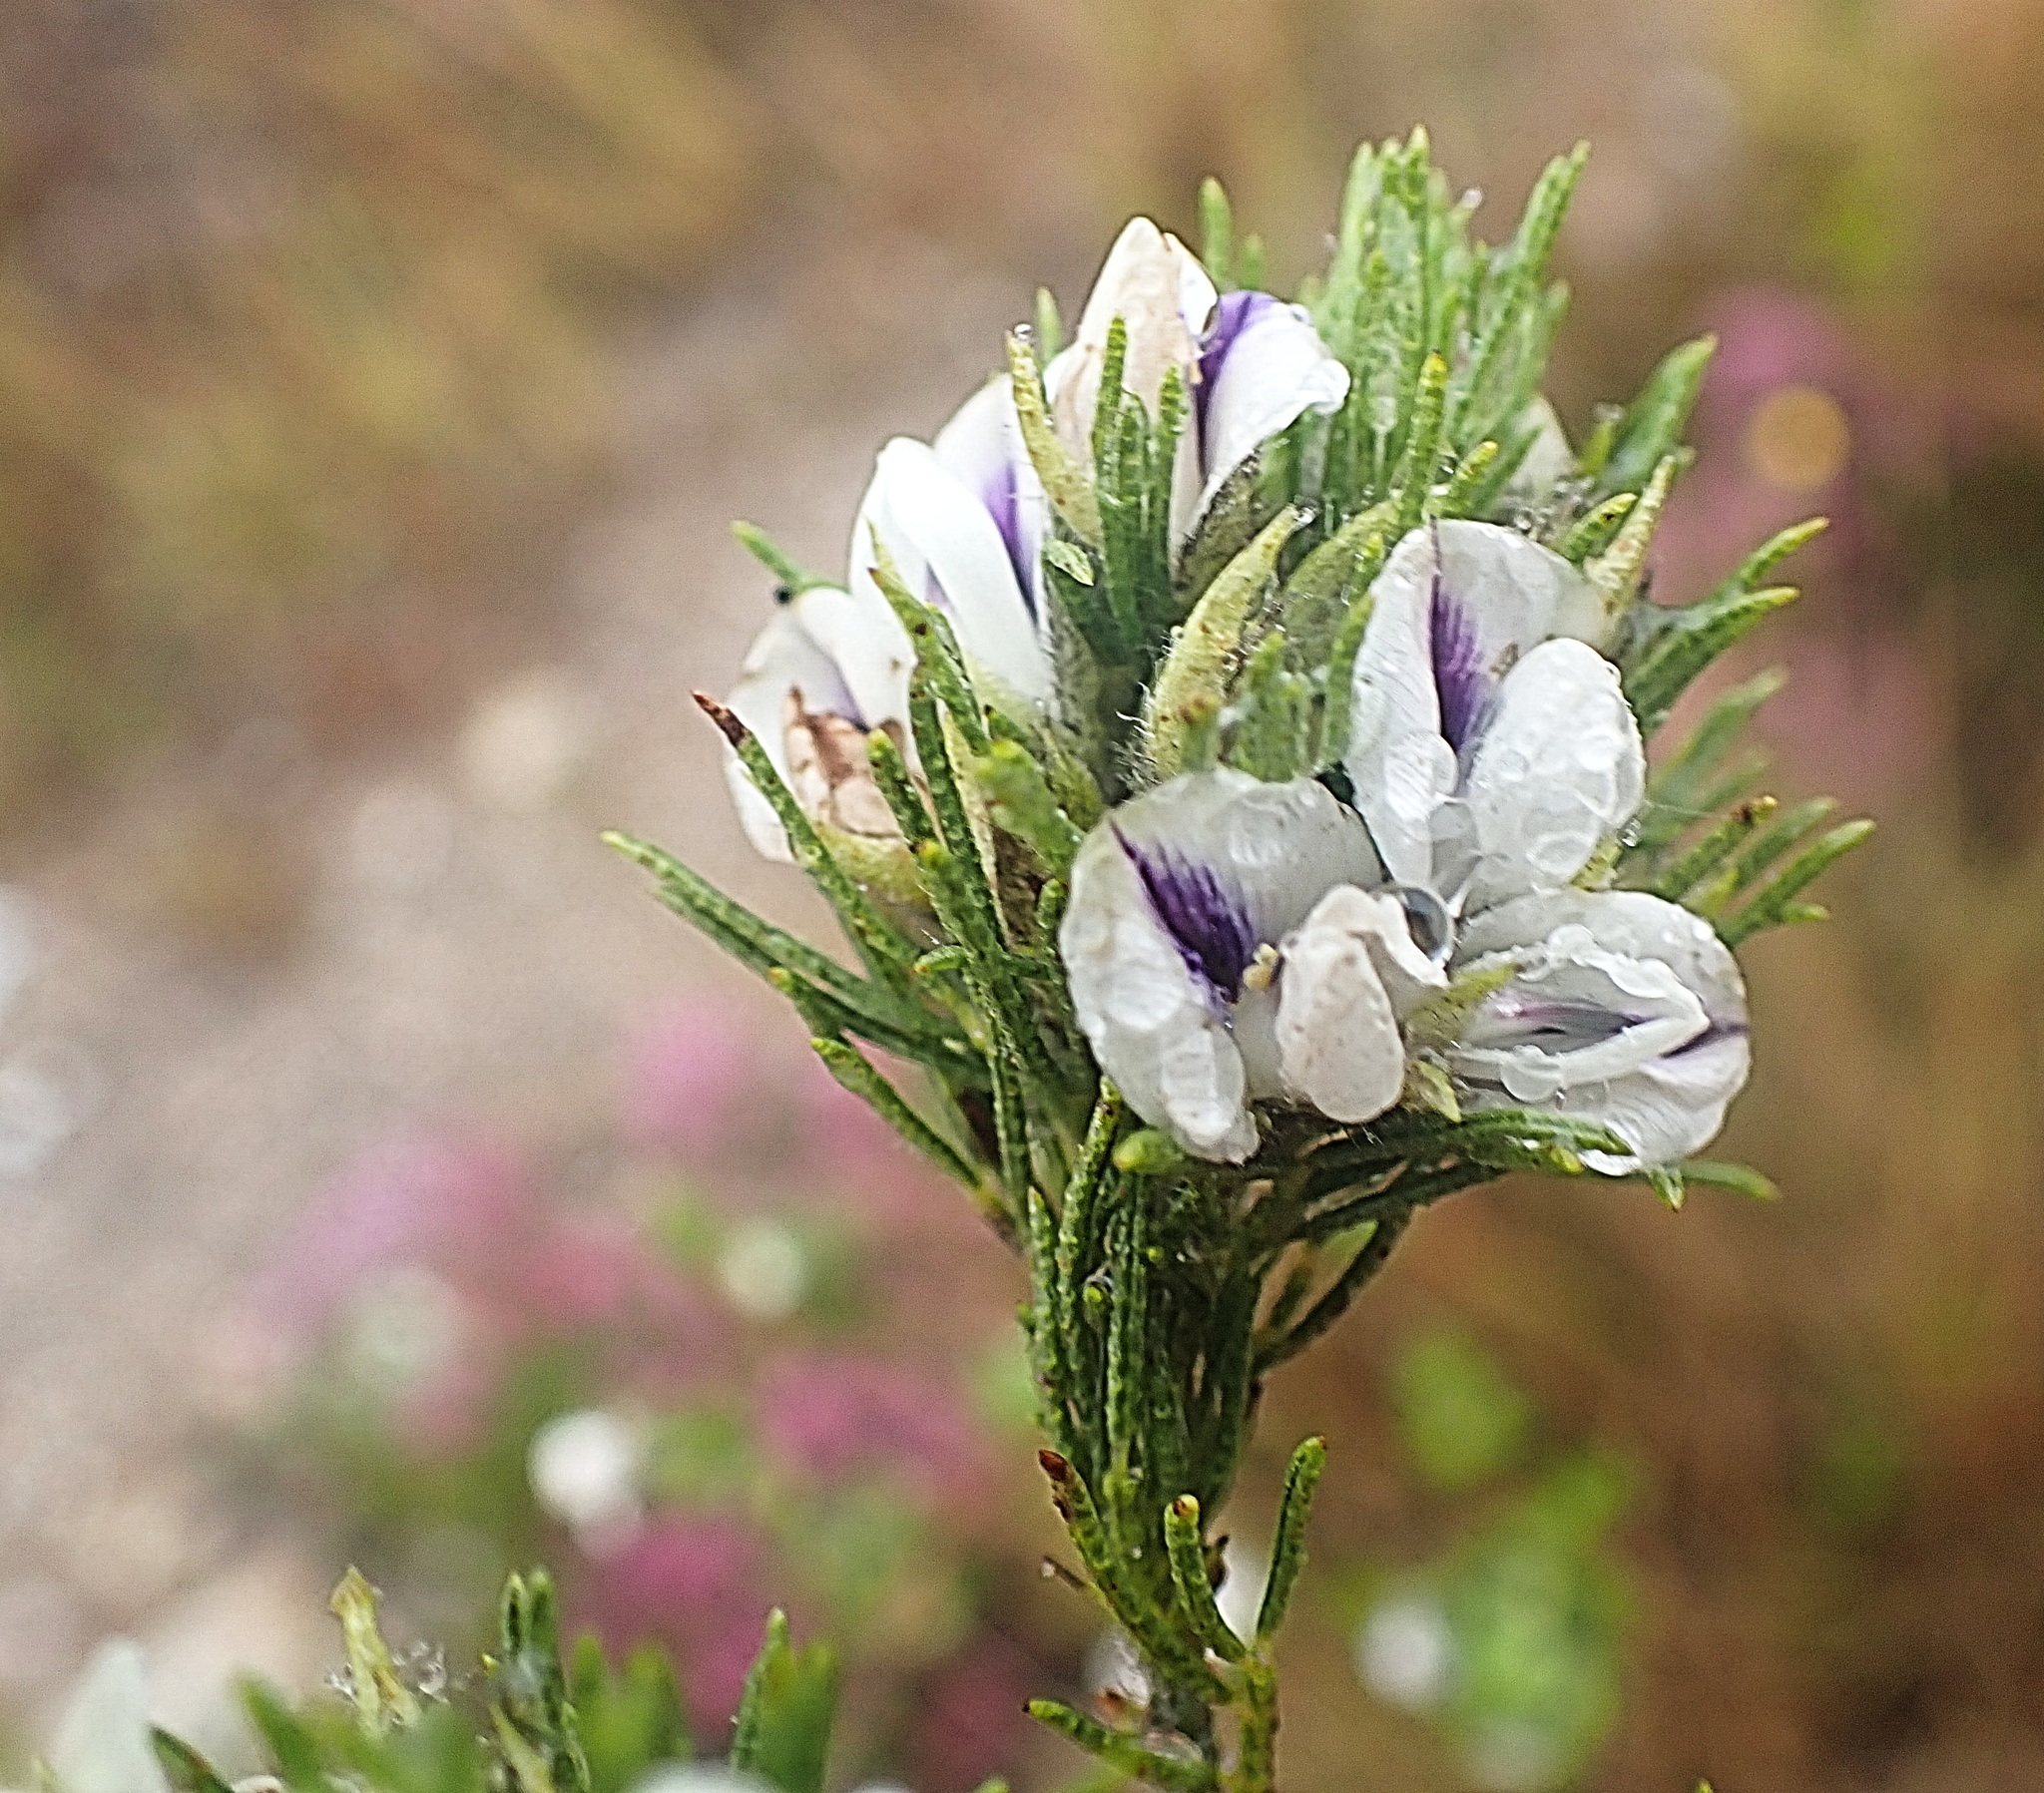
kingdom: Plantae
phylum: Tracheophyta
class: Magnoliopsida
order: Fabales
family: Fabaceae
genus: Psoralea
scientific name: Psoralea floccosa
